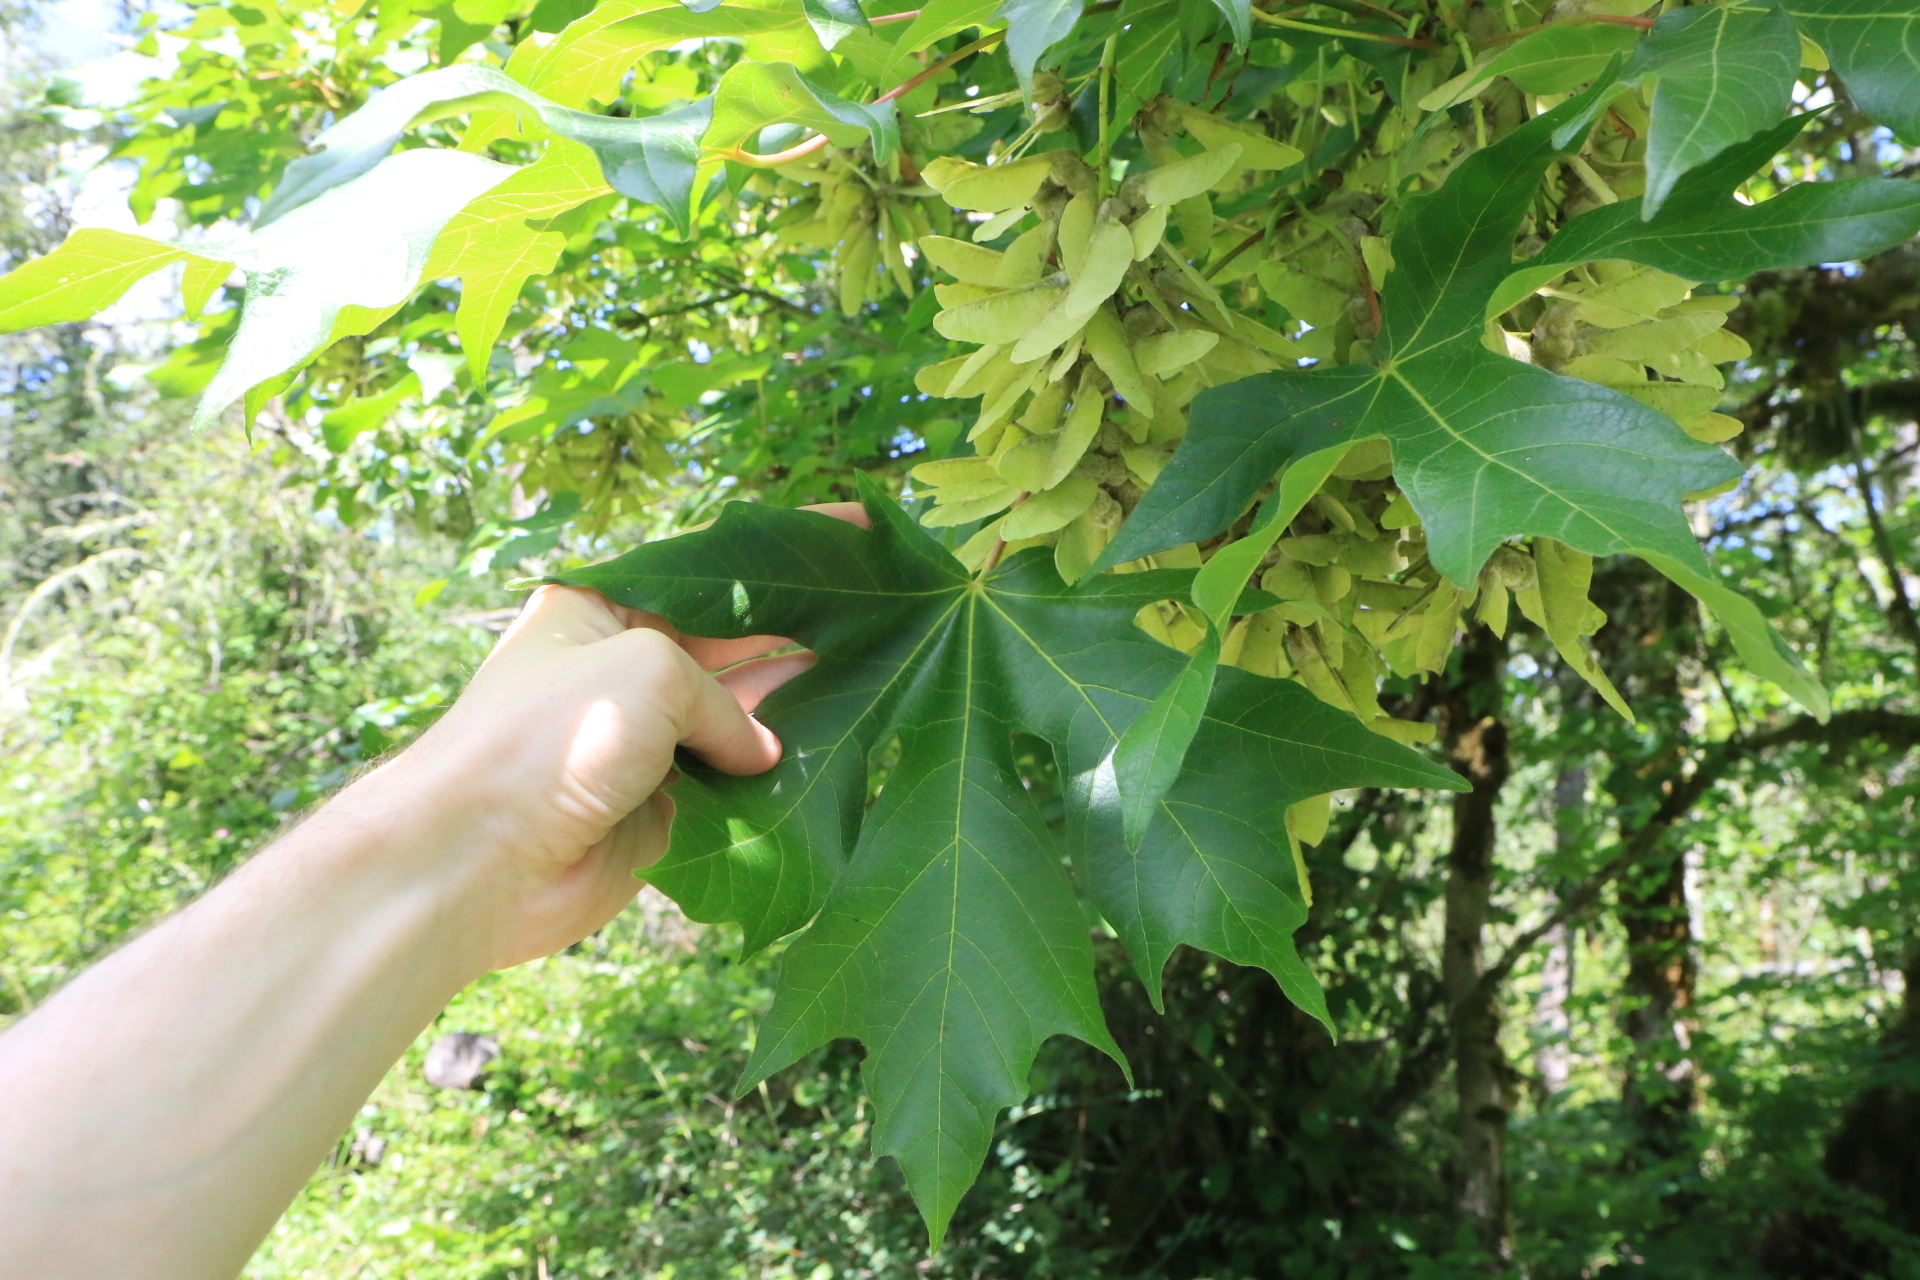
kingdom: Plantae
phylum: Tracheophyta
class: Magnoliopsida
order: Sapindales
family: Sapindaceae
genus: Acer
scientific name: Acer macrophyllum
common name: Oregon maple
